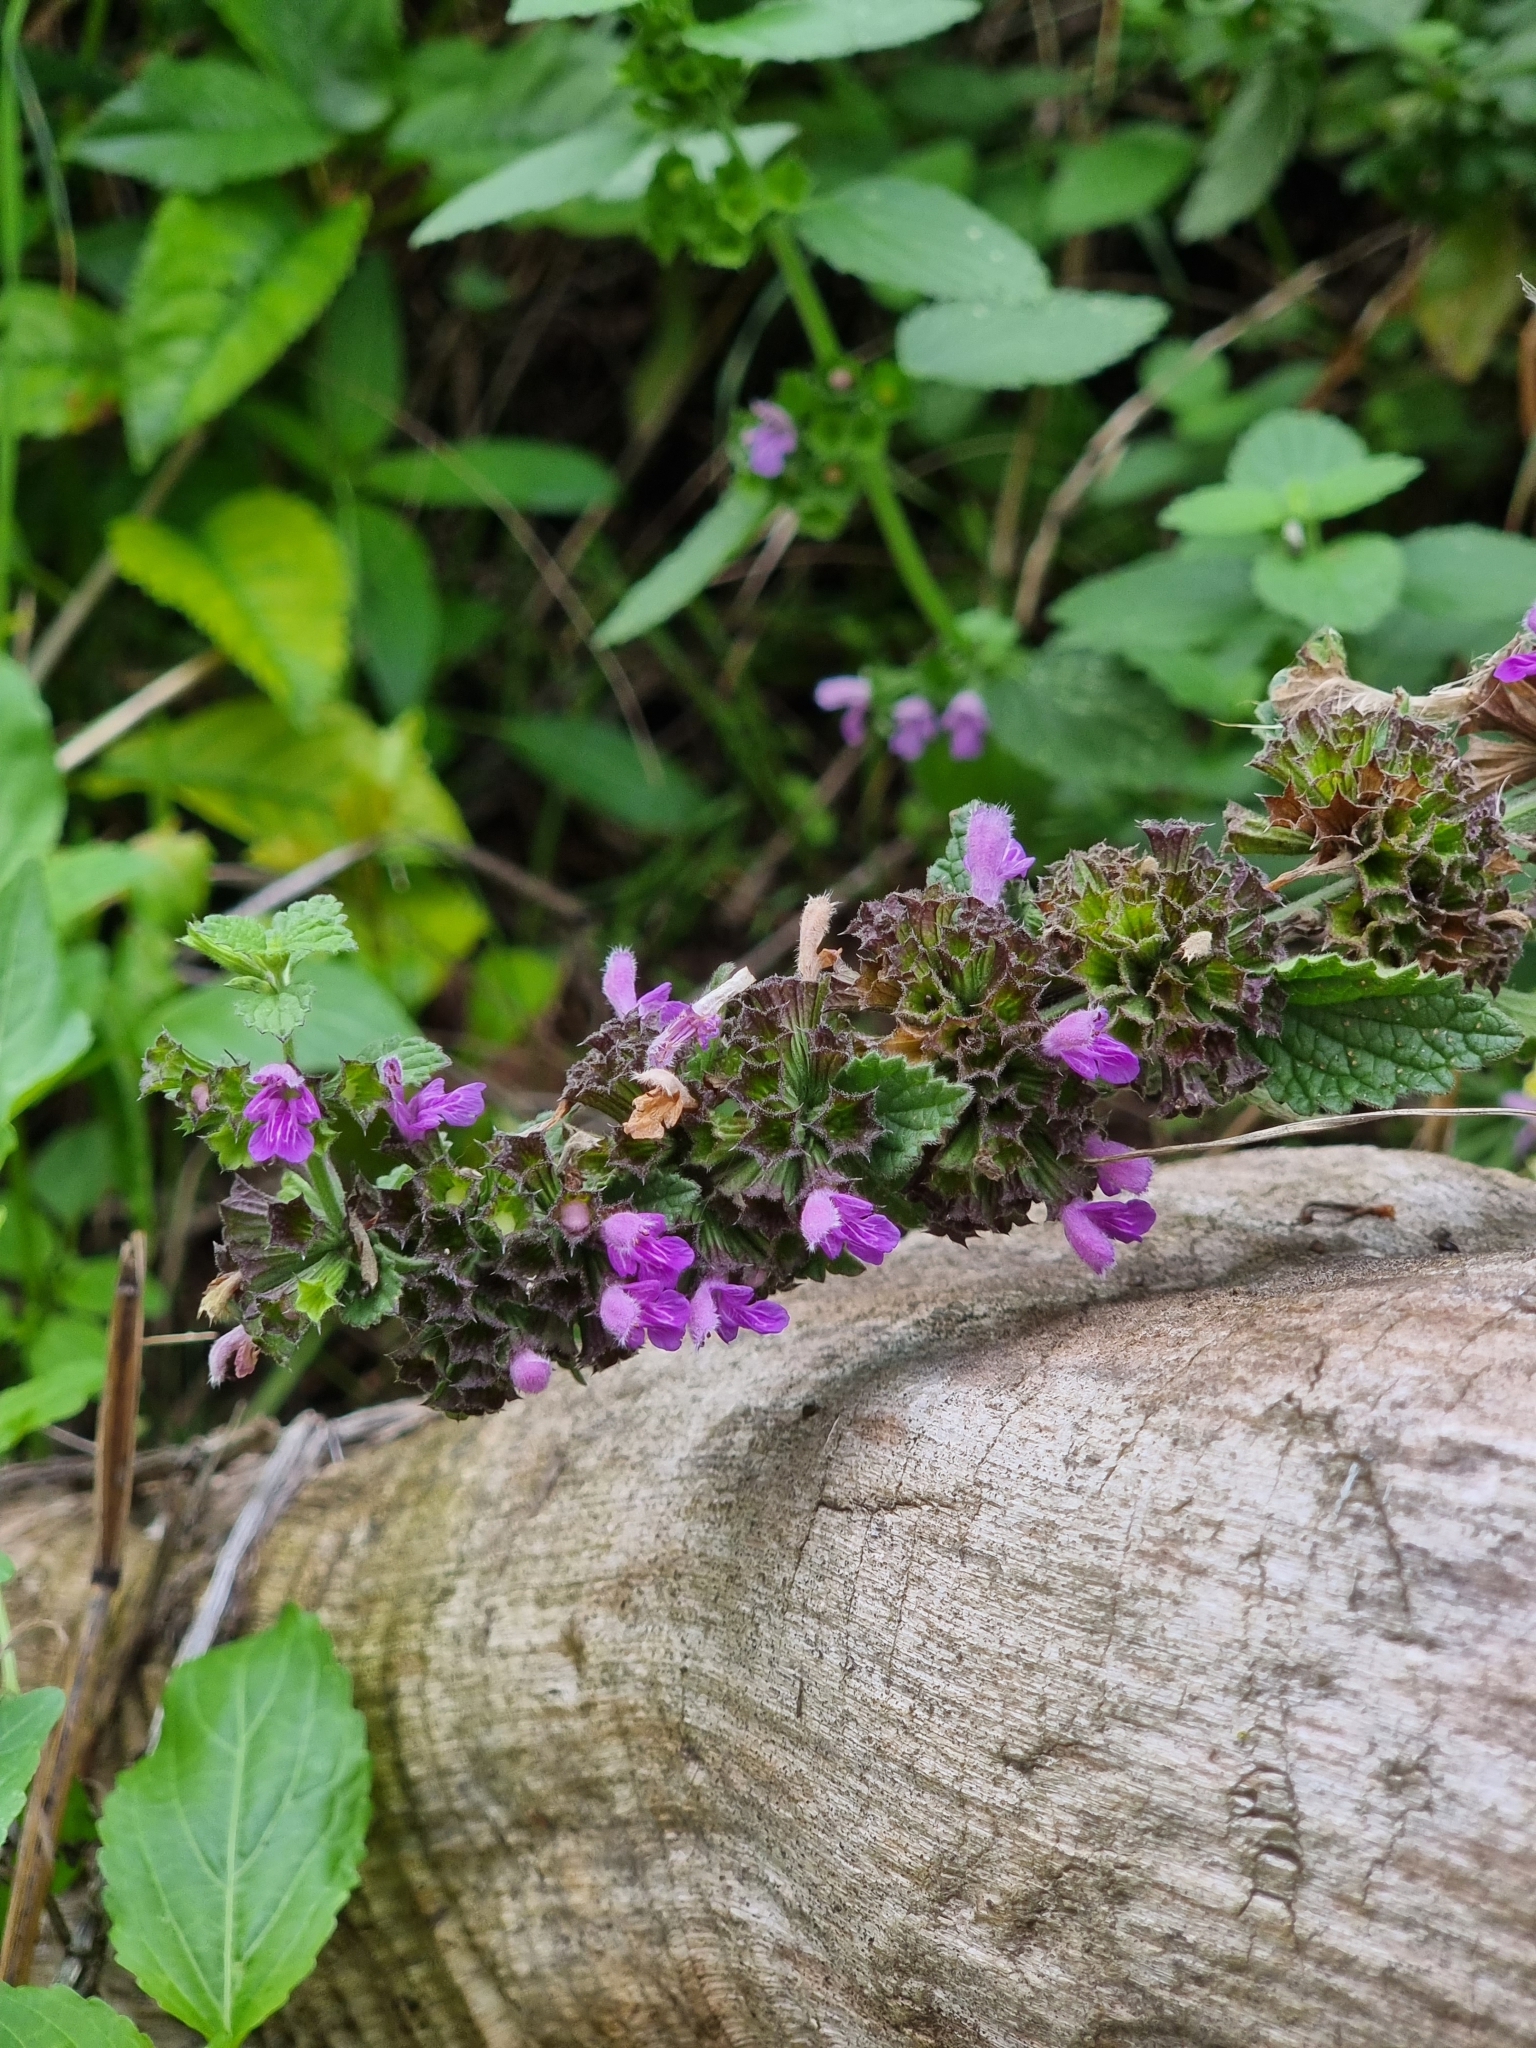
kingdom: Plantae
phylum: Tracheophyta
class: Magnoliopsida
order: Lamiales
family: Lamiaceae
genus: Ballota
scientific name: Ballota nigra
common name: Black horehound
